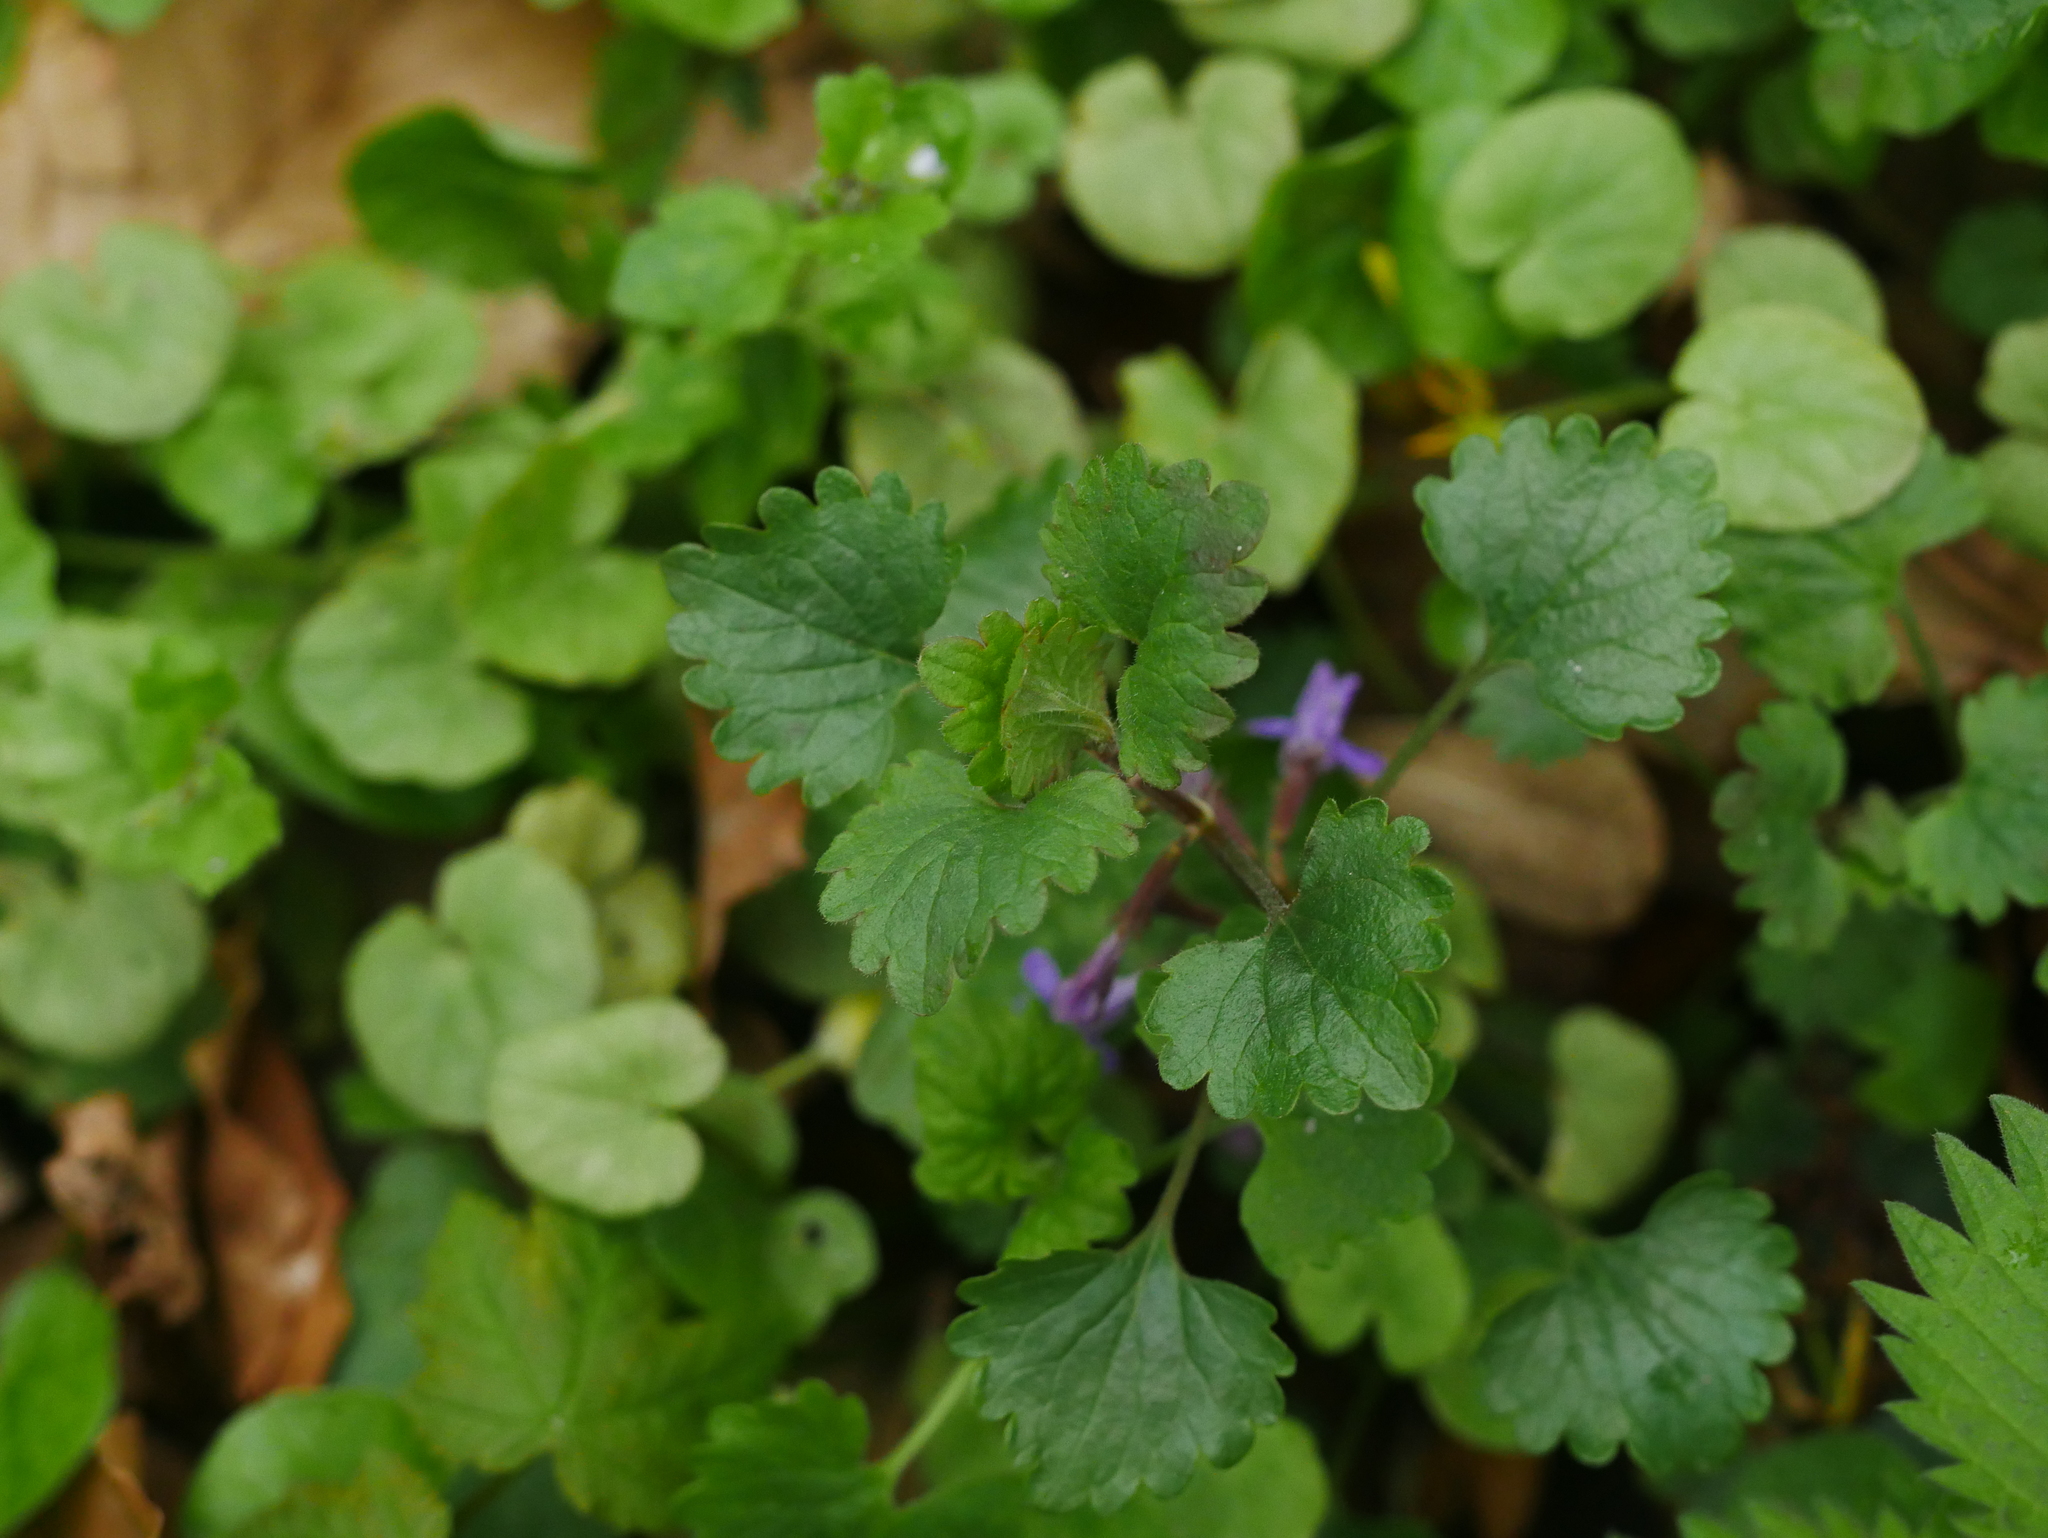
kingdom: Plantae
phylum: Tracheophyta
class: Magnoliopsida
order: Lamiales
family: Lamiaceae
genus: Glechoma
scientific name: Glechoma hederacea
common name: Ground ivy
